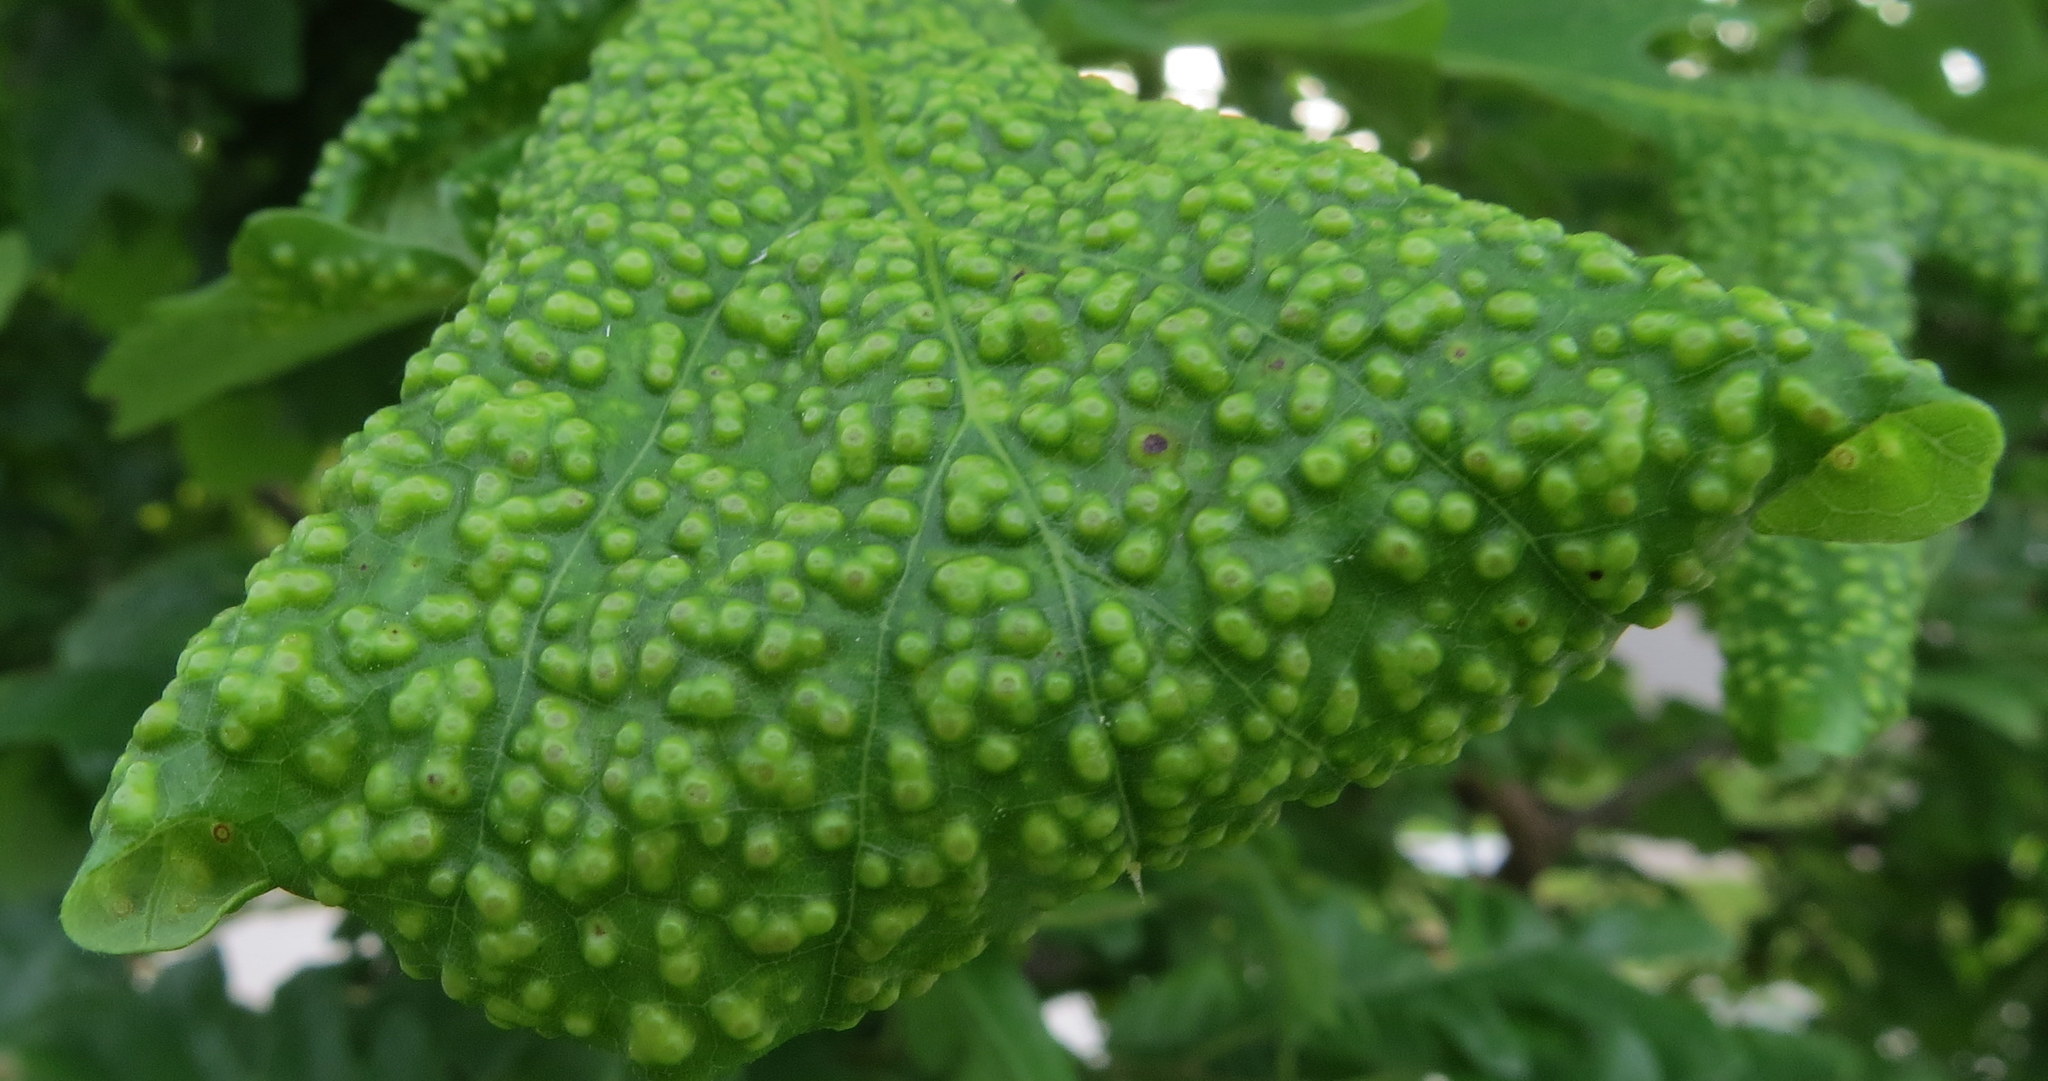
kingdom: Animalia
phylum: Arthropoda
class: Insecta
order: Hymenoptera
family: Cynipidae
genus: Neuroterus
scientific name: Neuroterus saltarius
